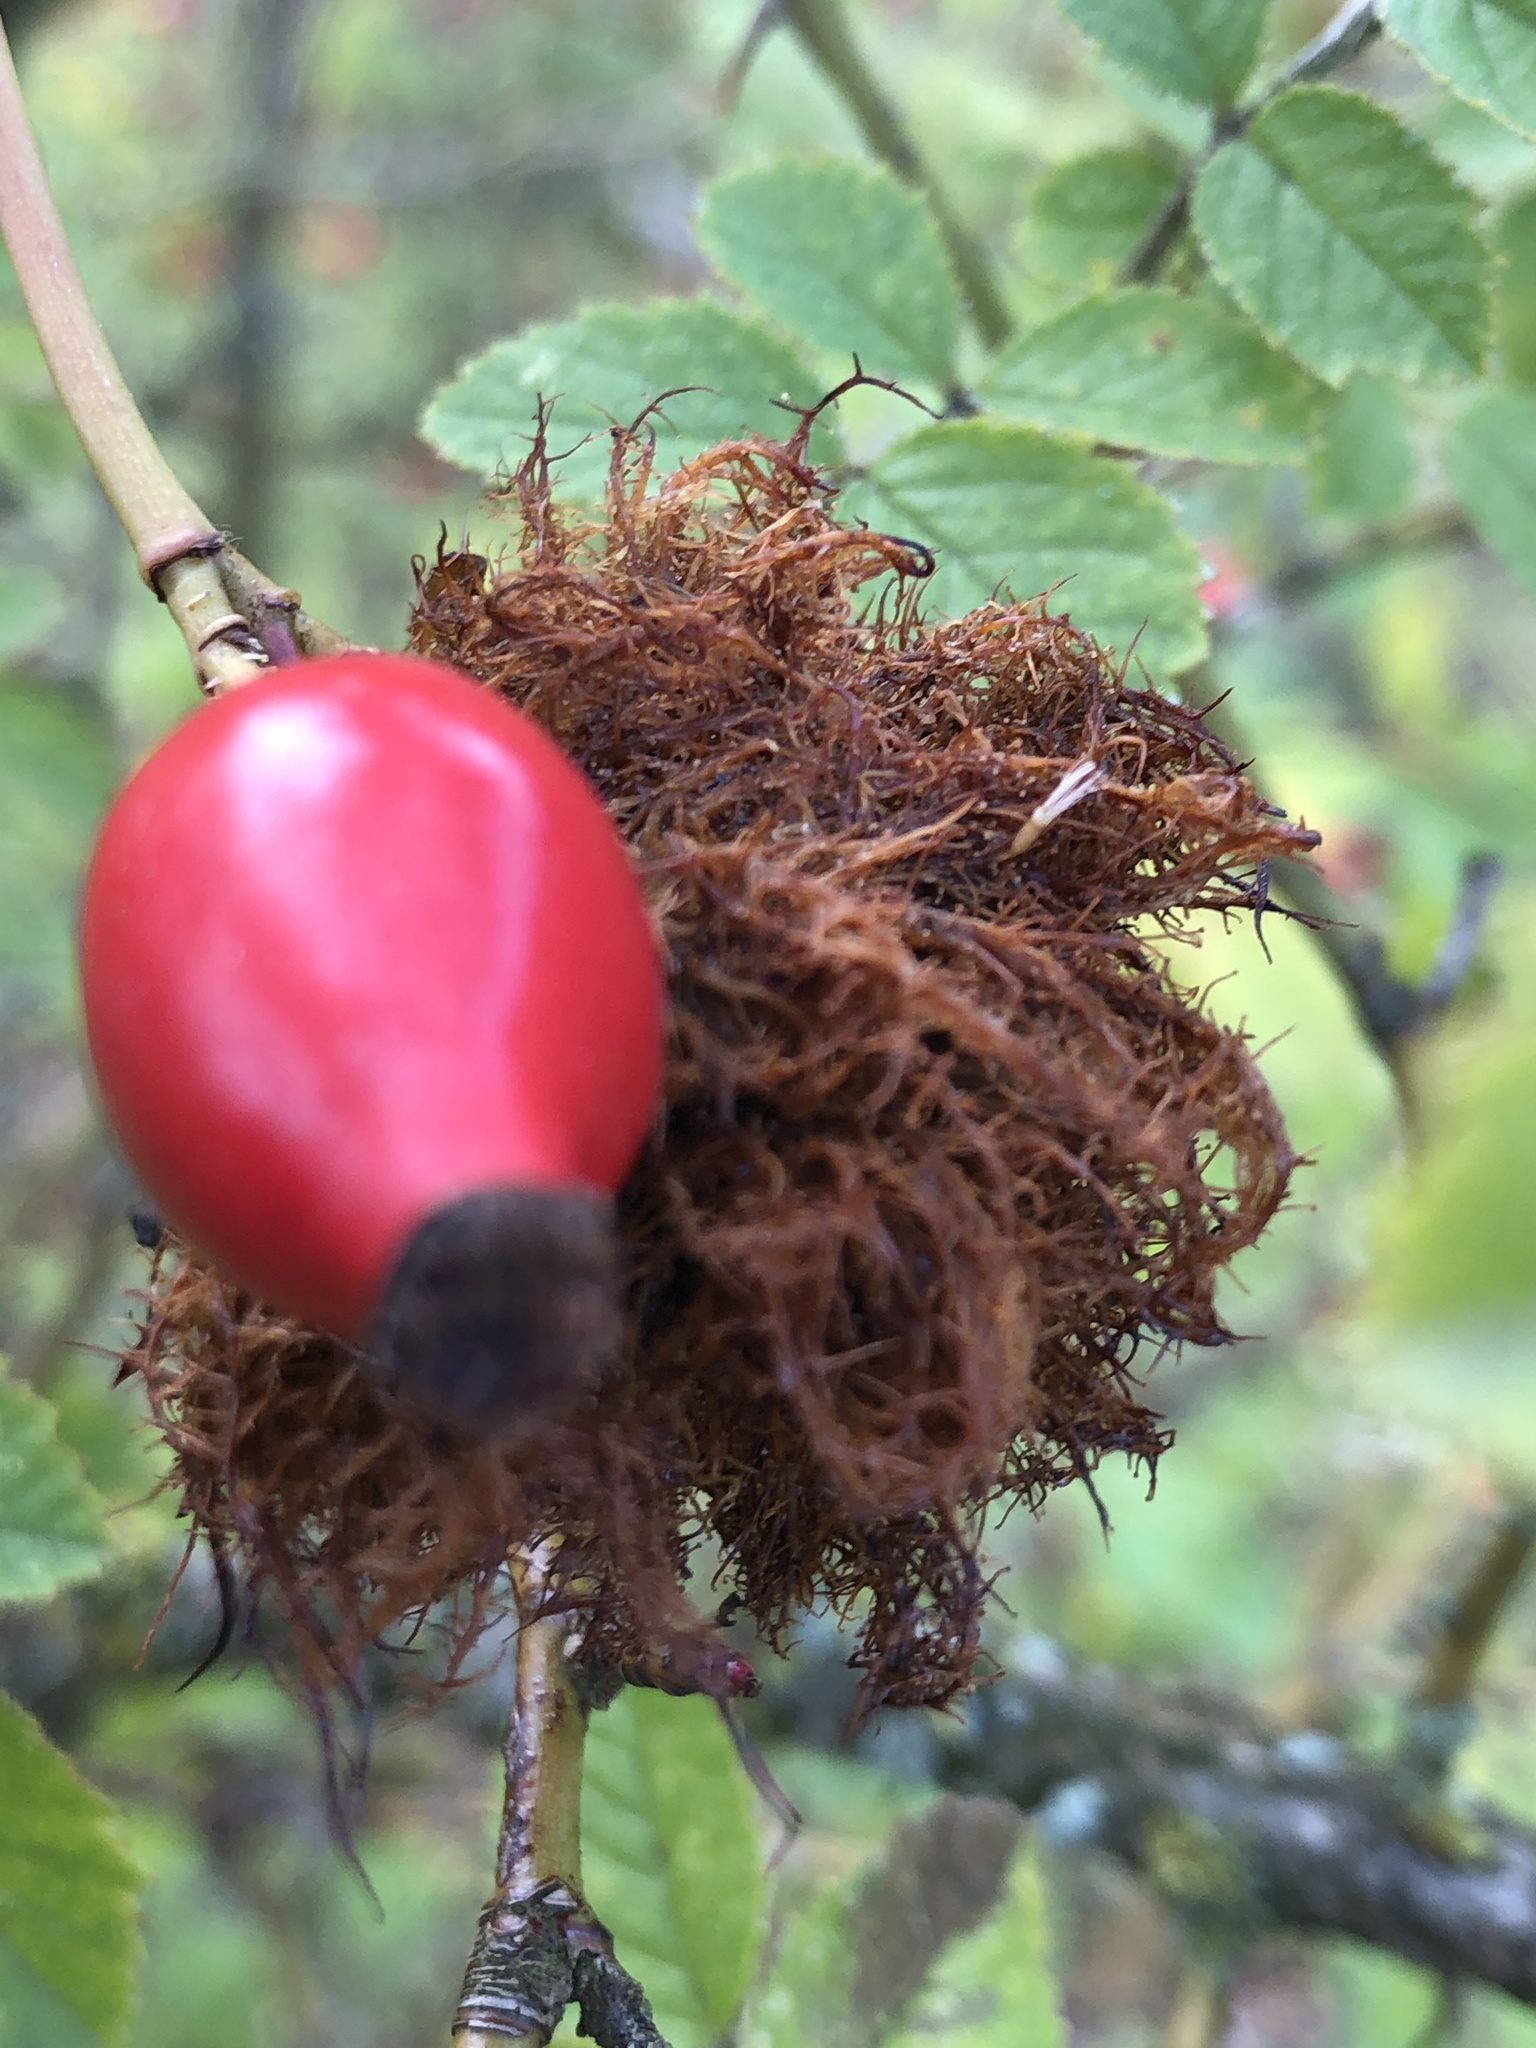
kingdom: Animalia
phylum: Arthropoda
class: Insecta
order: Hymenoptera
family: Cynipidae
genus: Diplolepis
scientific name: Diplolepis rosae
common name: Bedeguar gall
